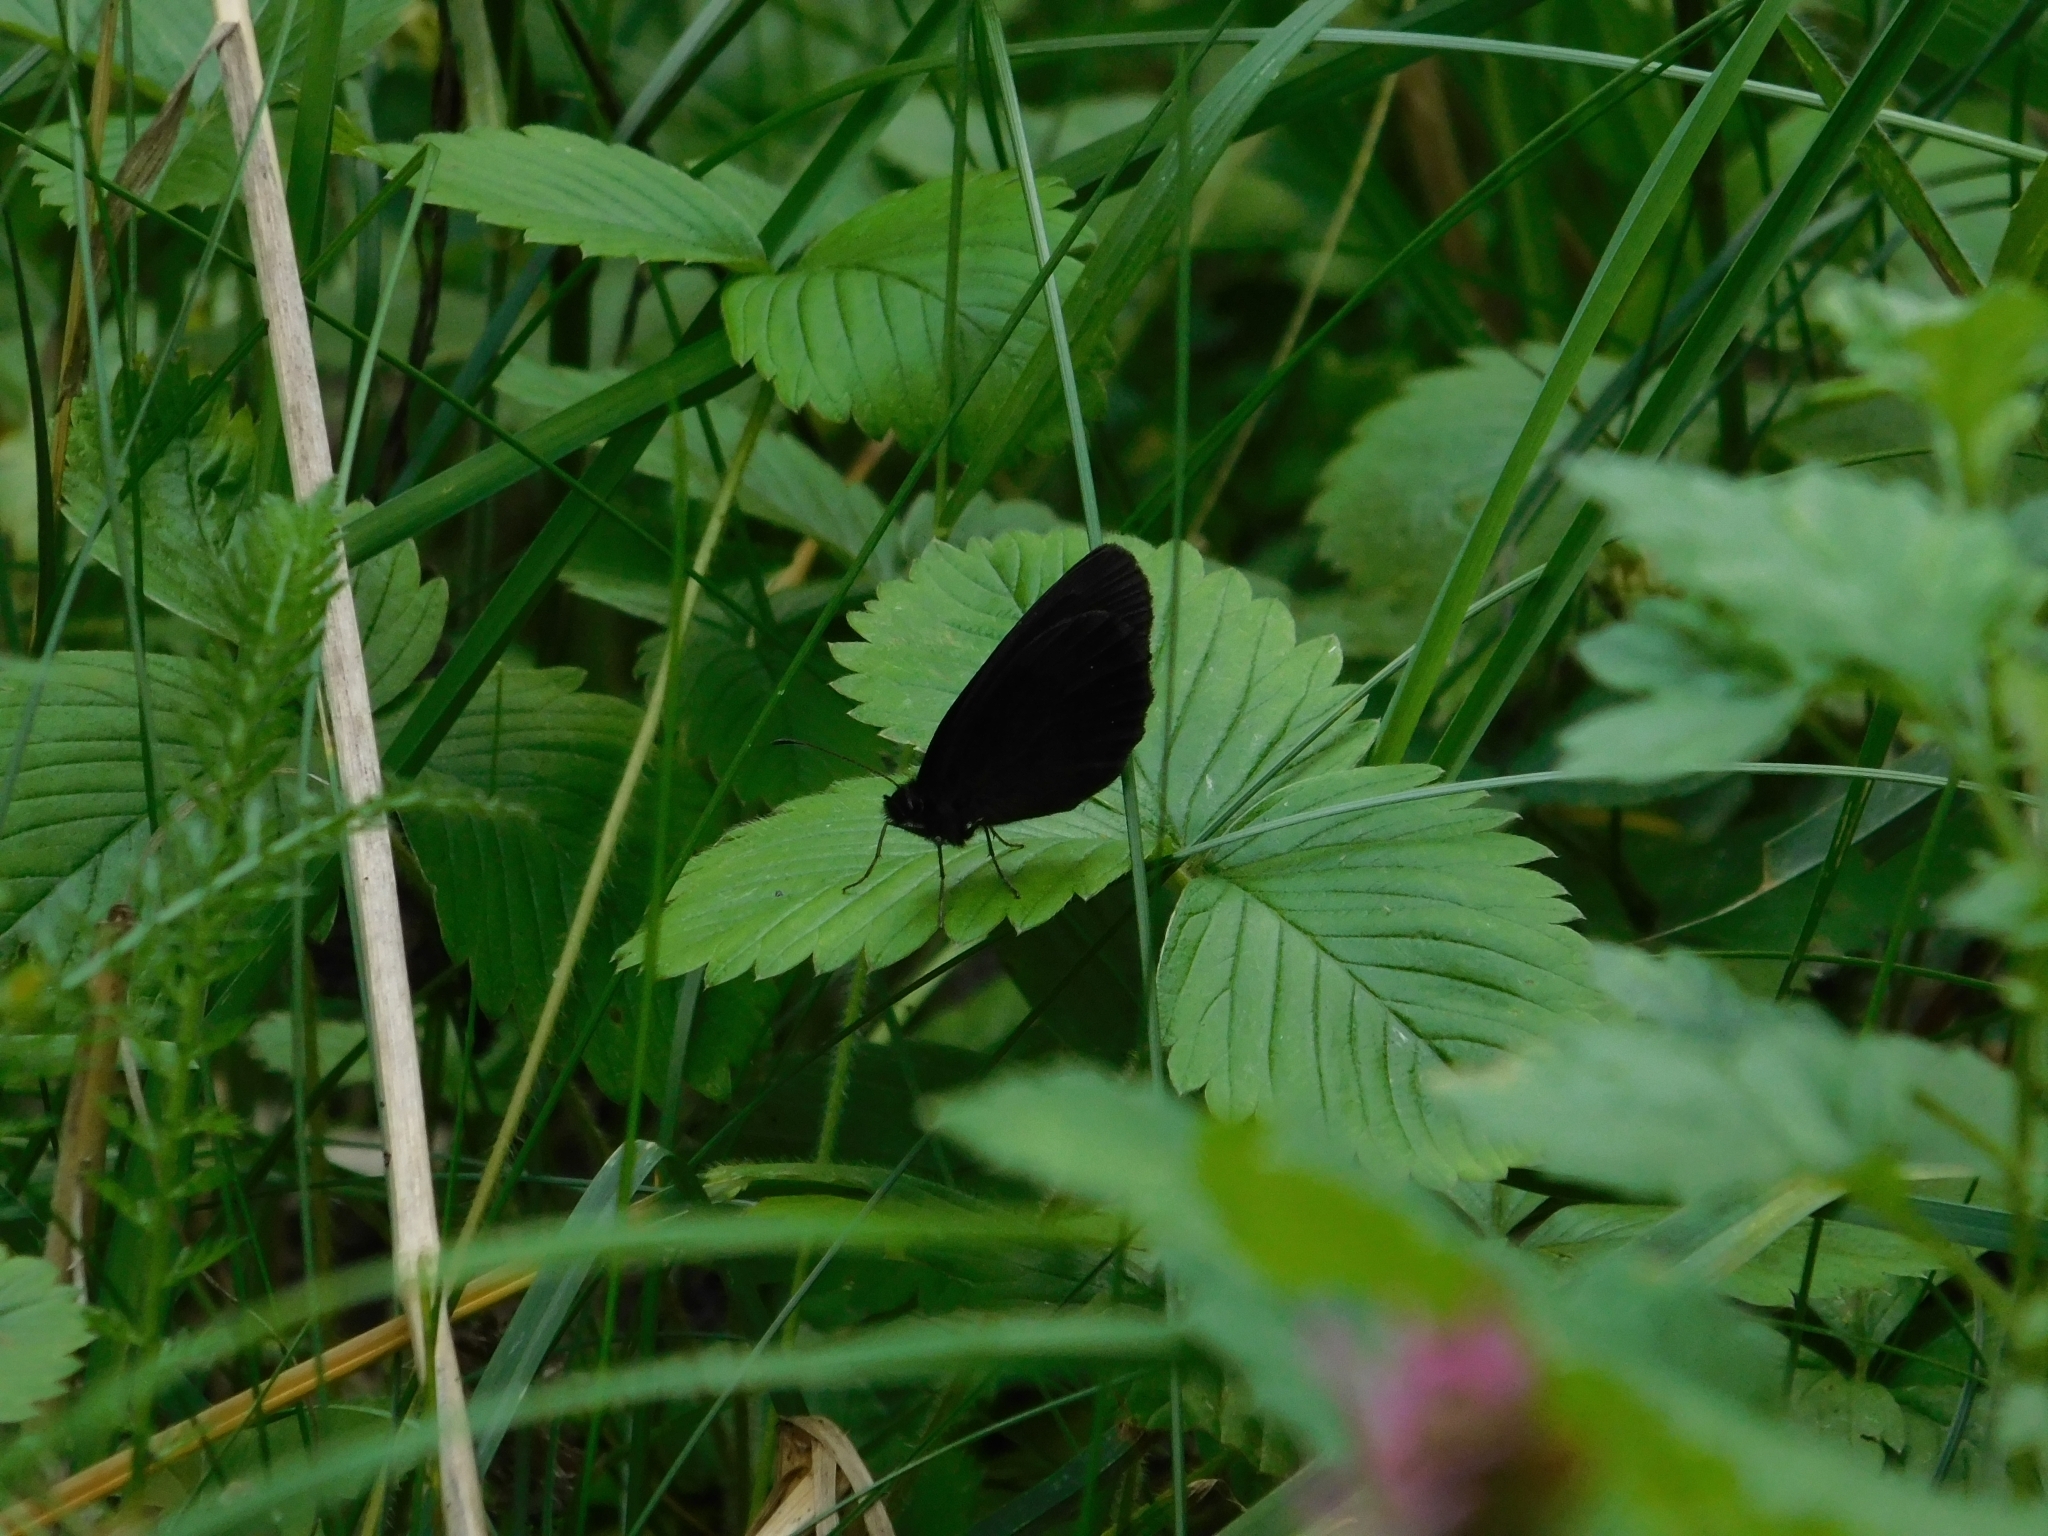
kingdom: Animalia
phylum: Arthropoda
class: Insecta
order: Lepidoptera
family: Nymphalidae
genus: Erebia
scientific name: Erebia aethiops
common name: Scotch argus
